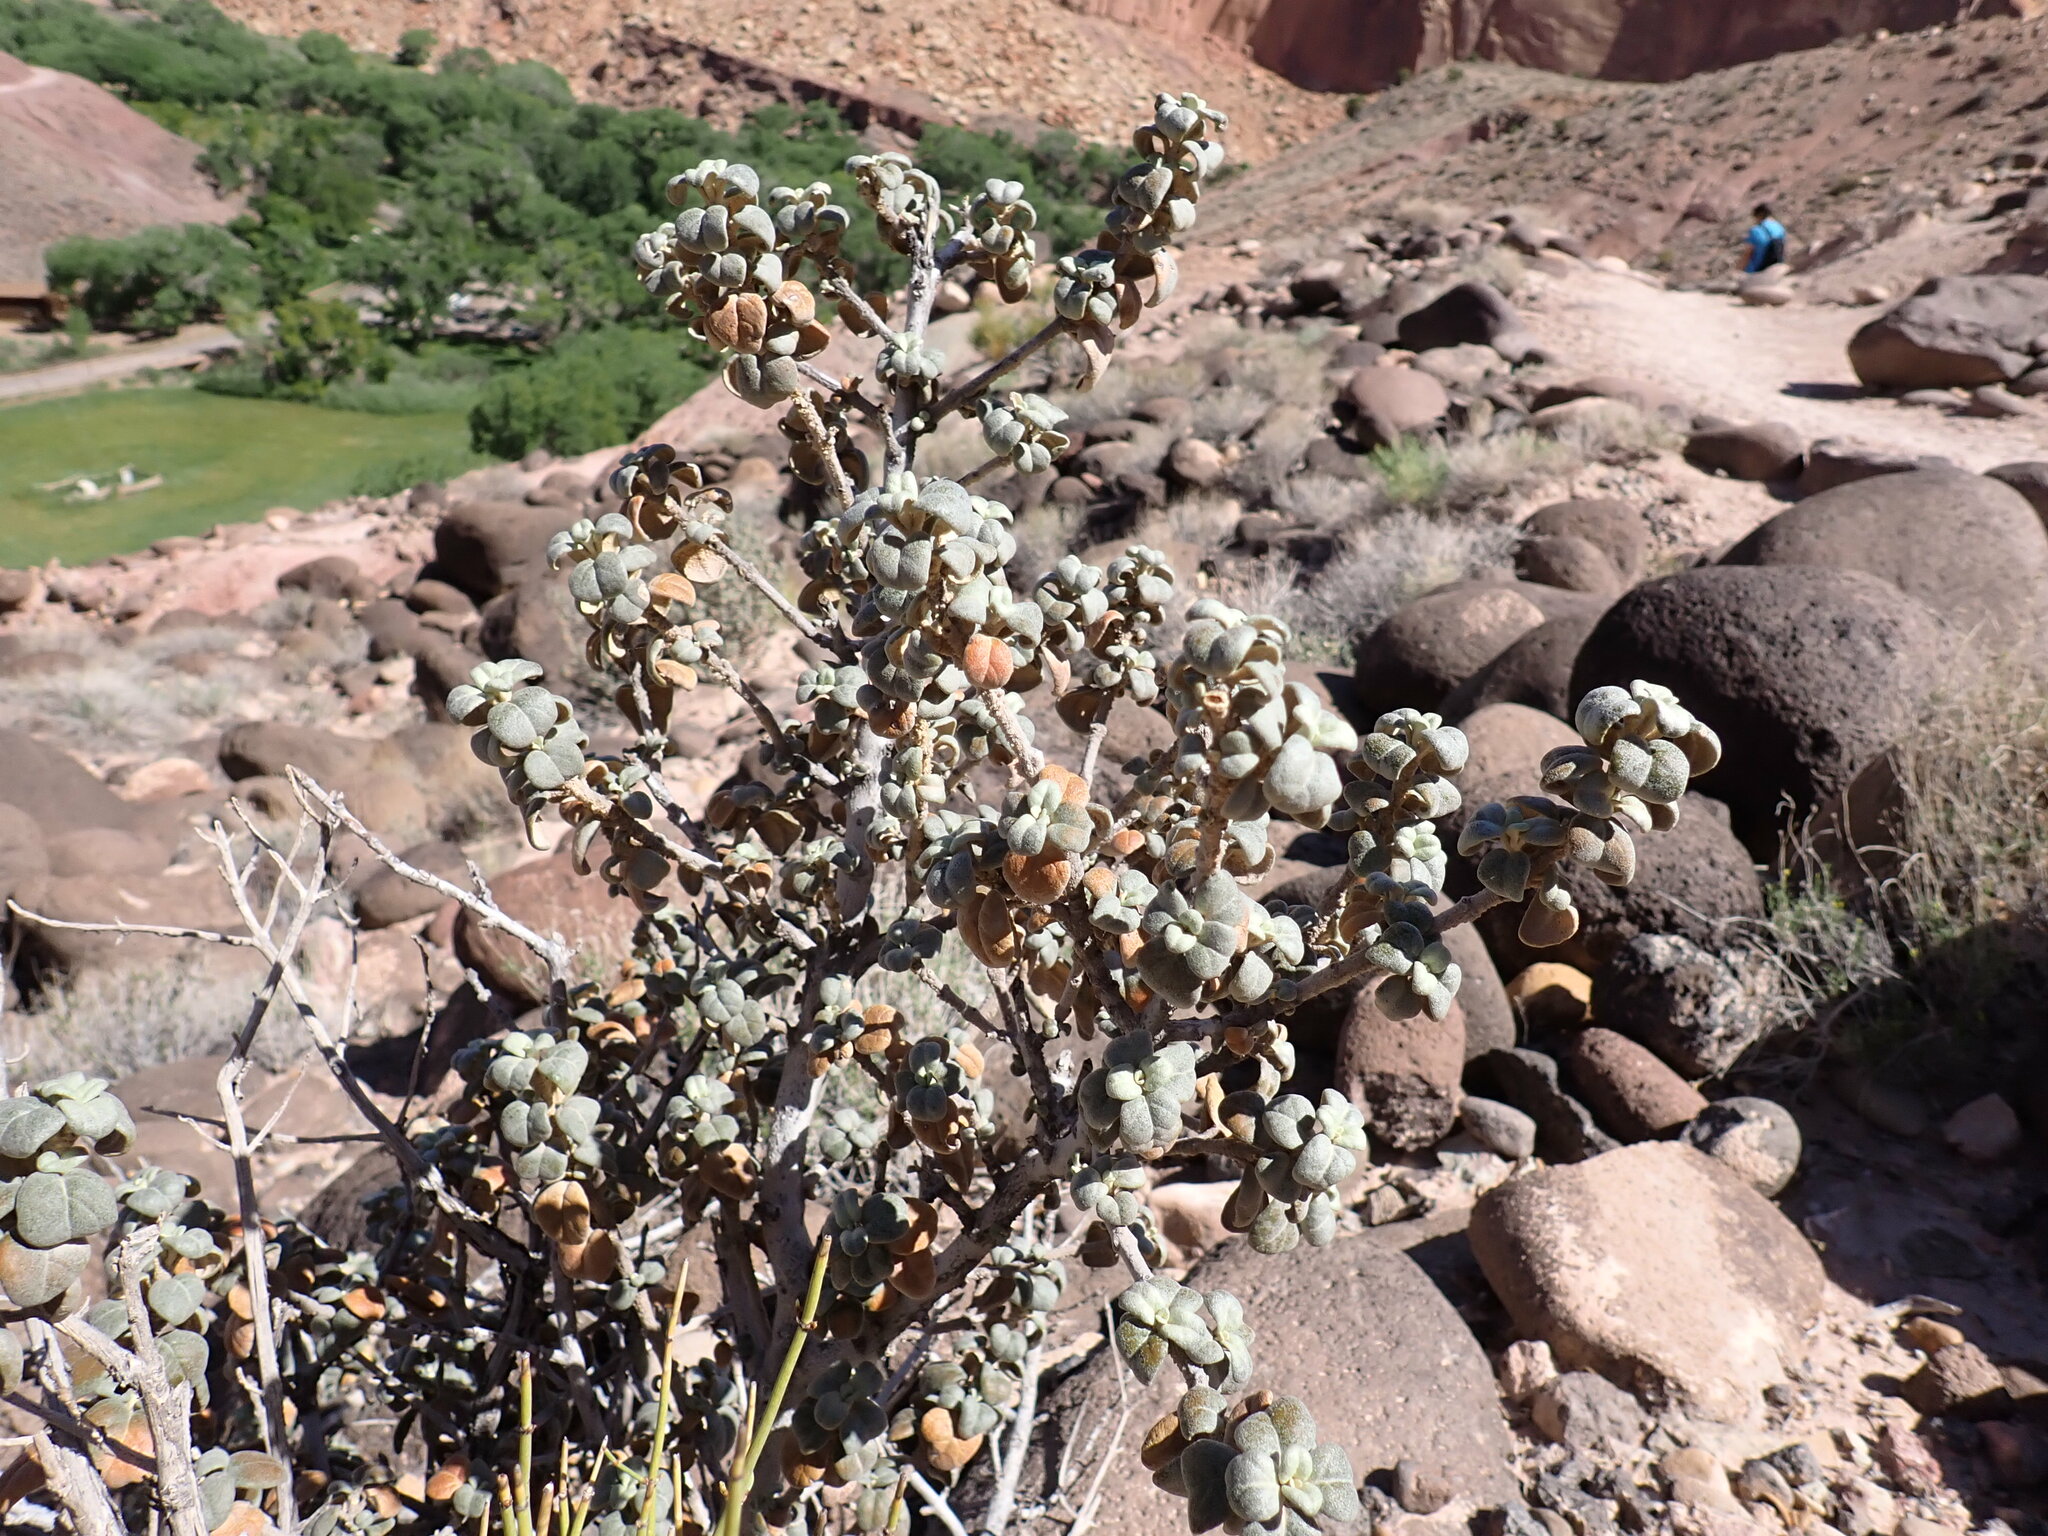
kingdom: Plantae
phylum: Tracheophyta
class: Magnoliopsida
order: Rosales
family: Elaeagnaceae
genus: Shepherdia
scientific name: Shepherdia rotundifolia
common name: Silverscale
